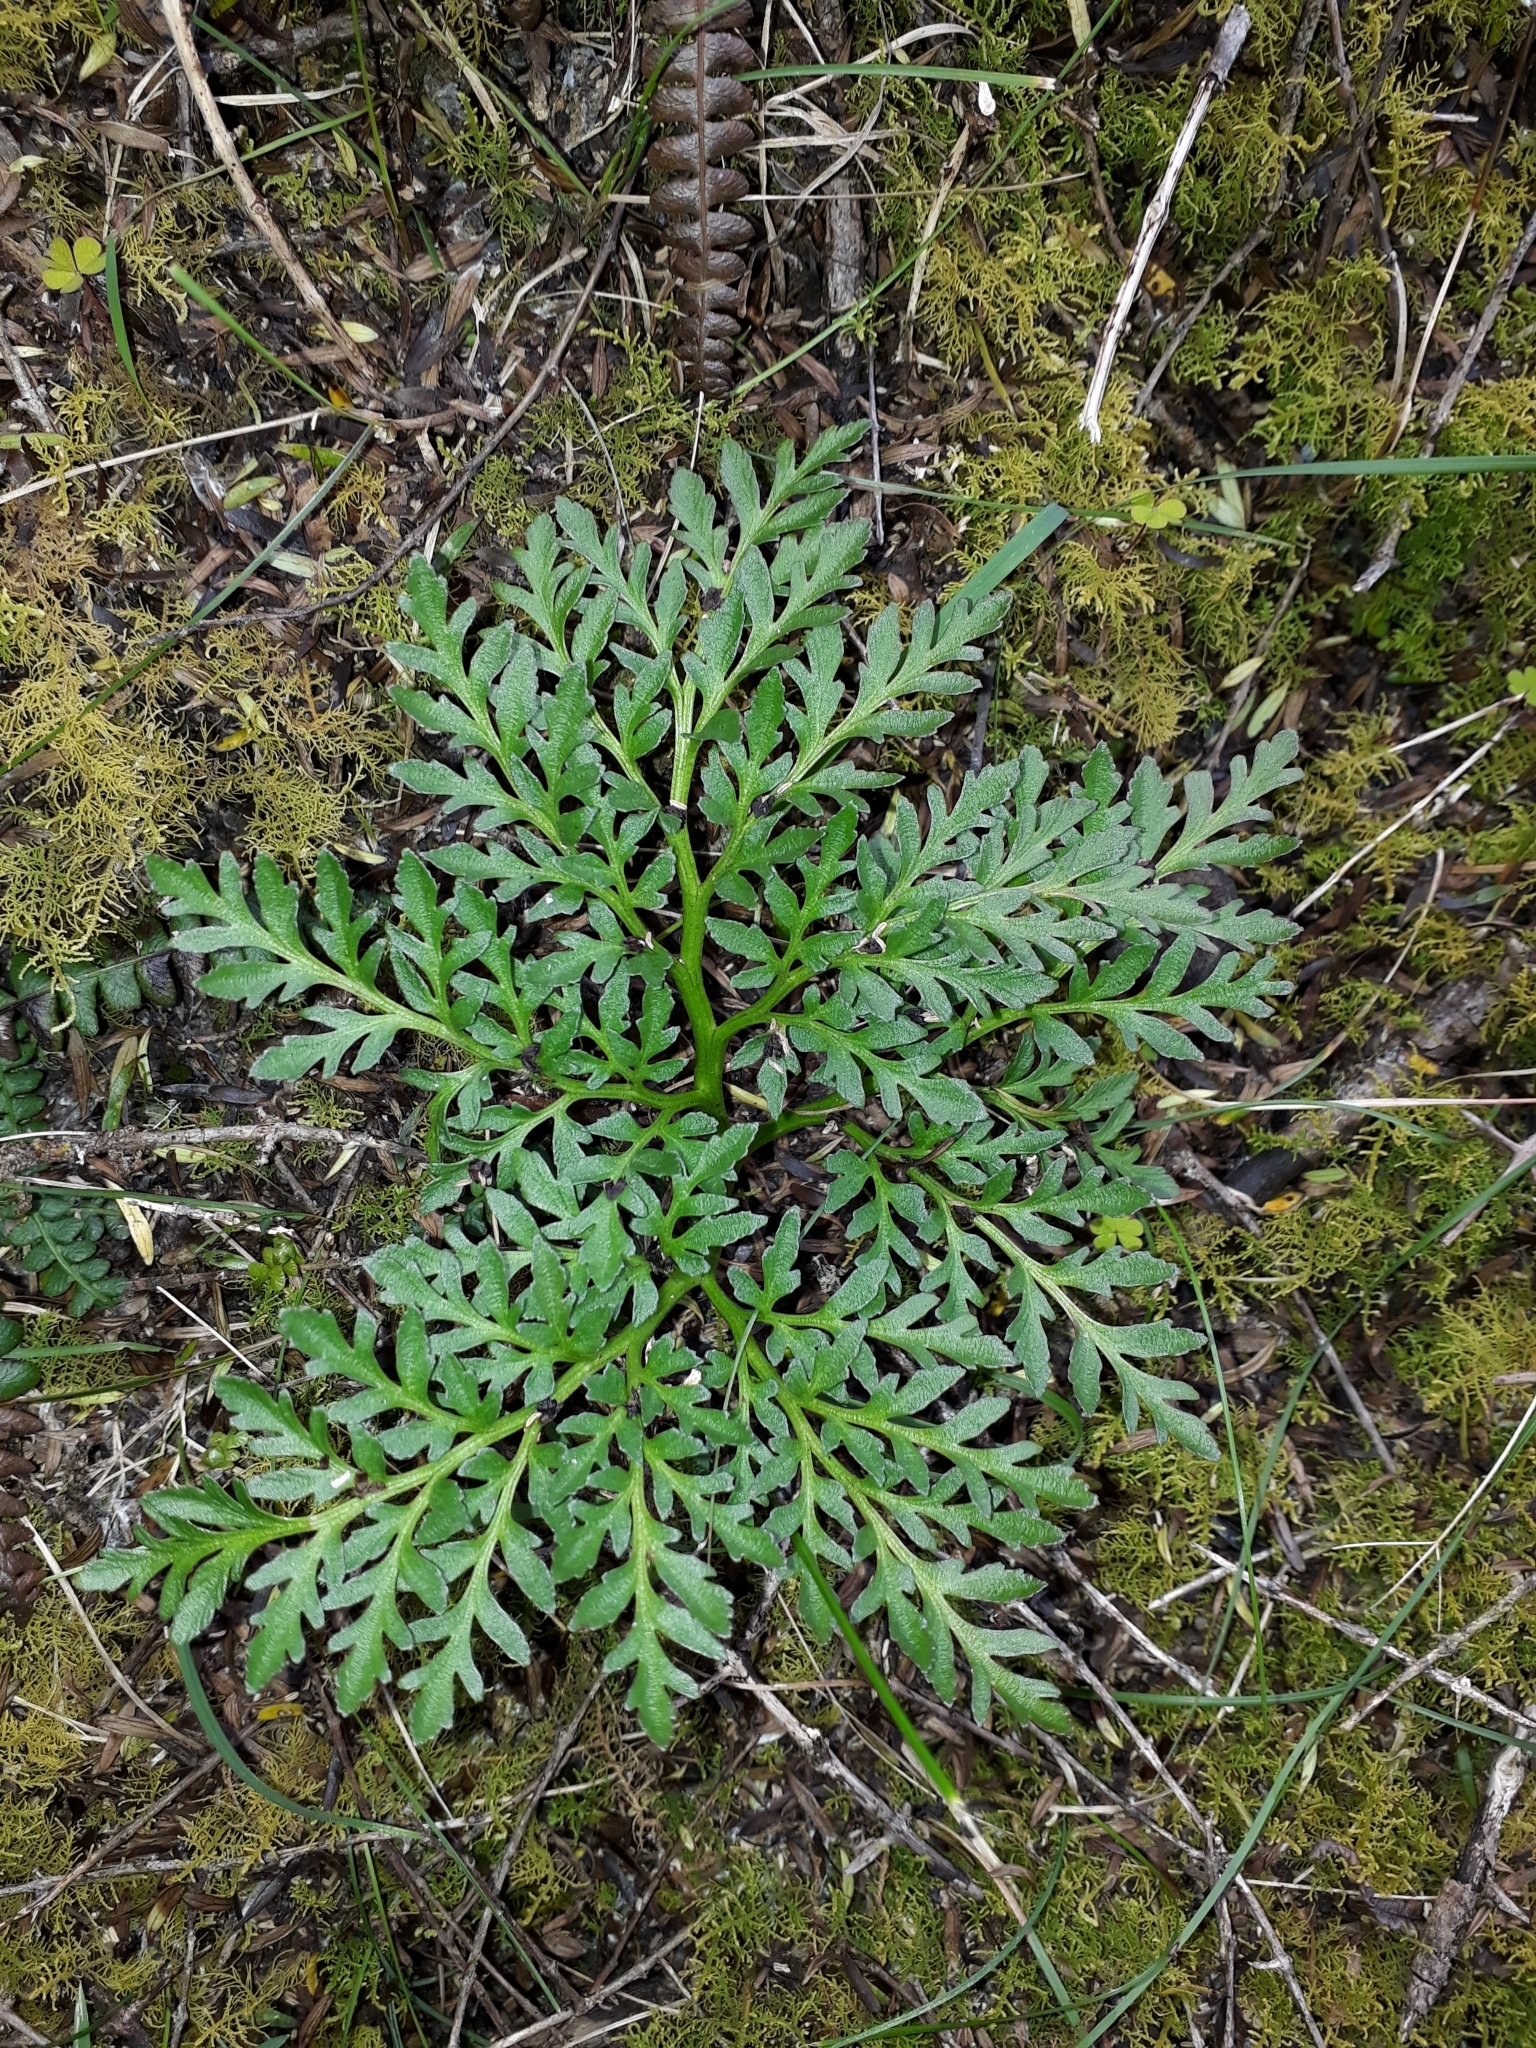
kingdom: Plantae
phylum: Tracheophyta
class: Polypodiopsida
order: Ophioglossales
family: Ophioglossaceae
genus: Sceptridium
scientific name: Sceptridium australe
